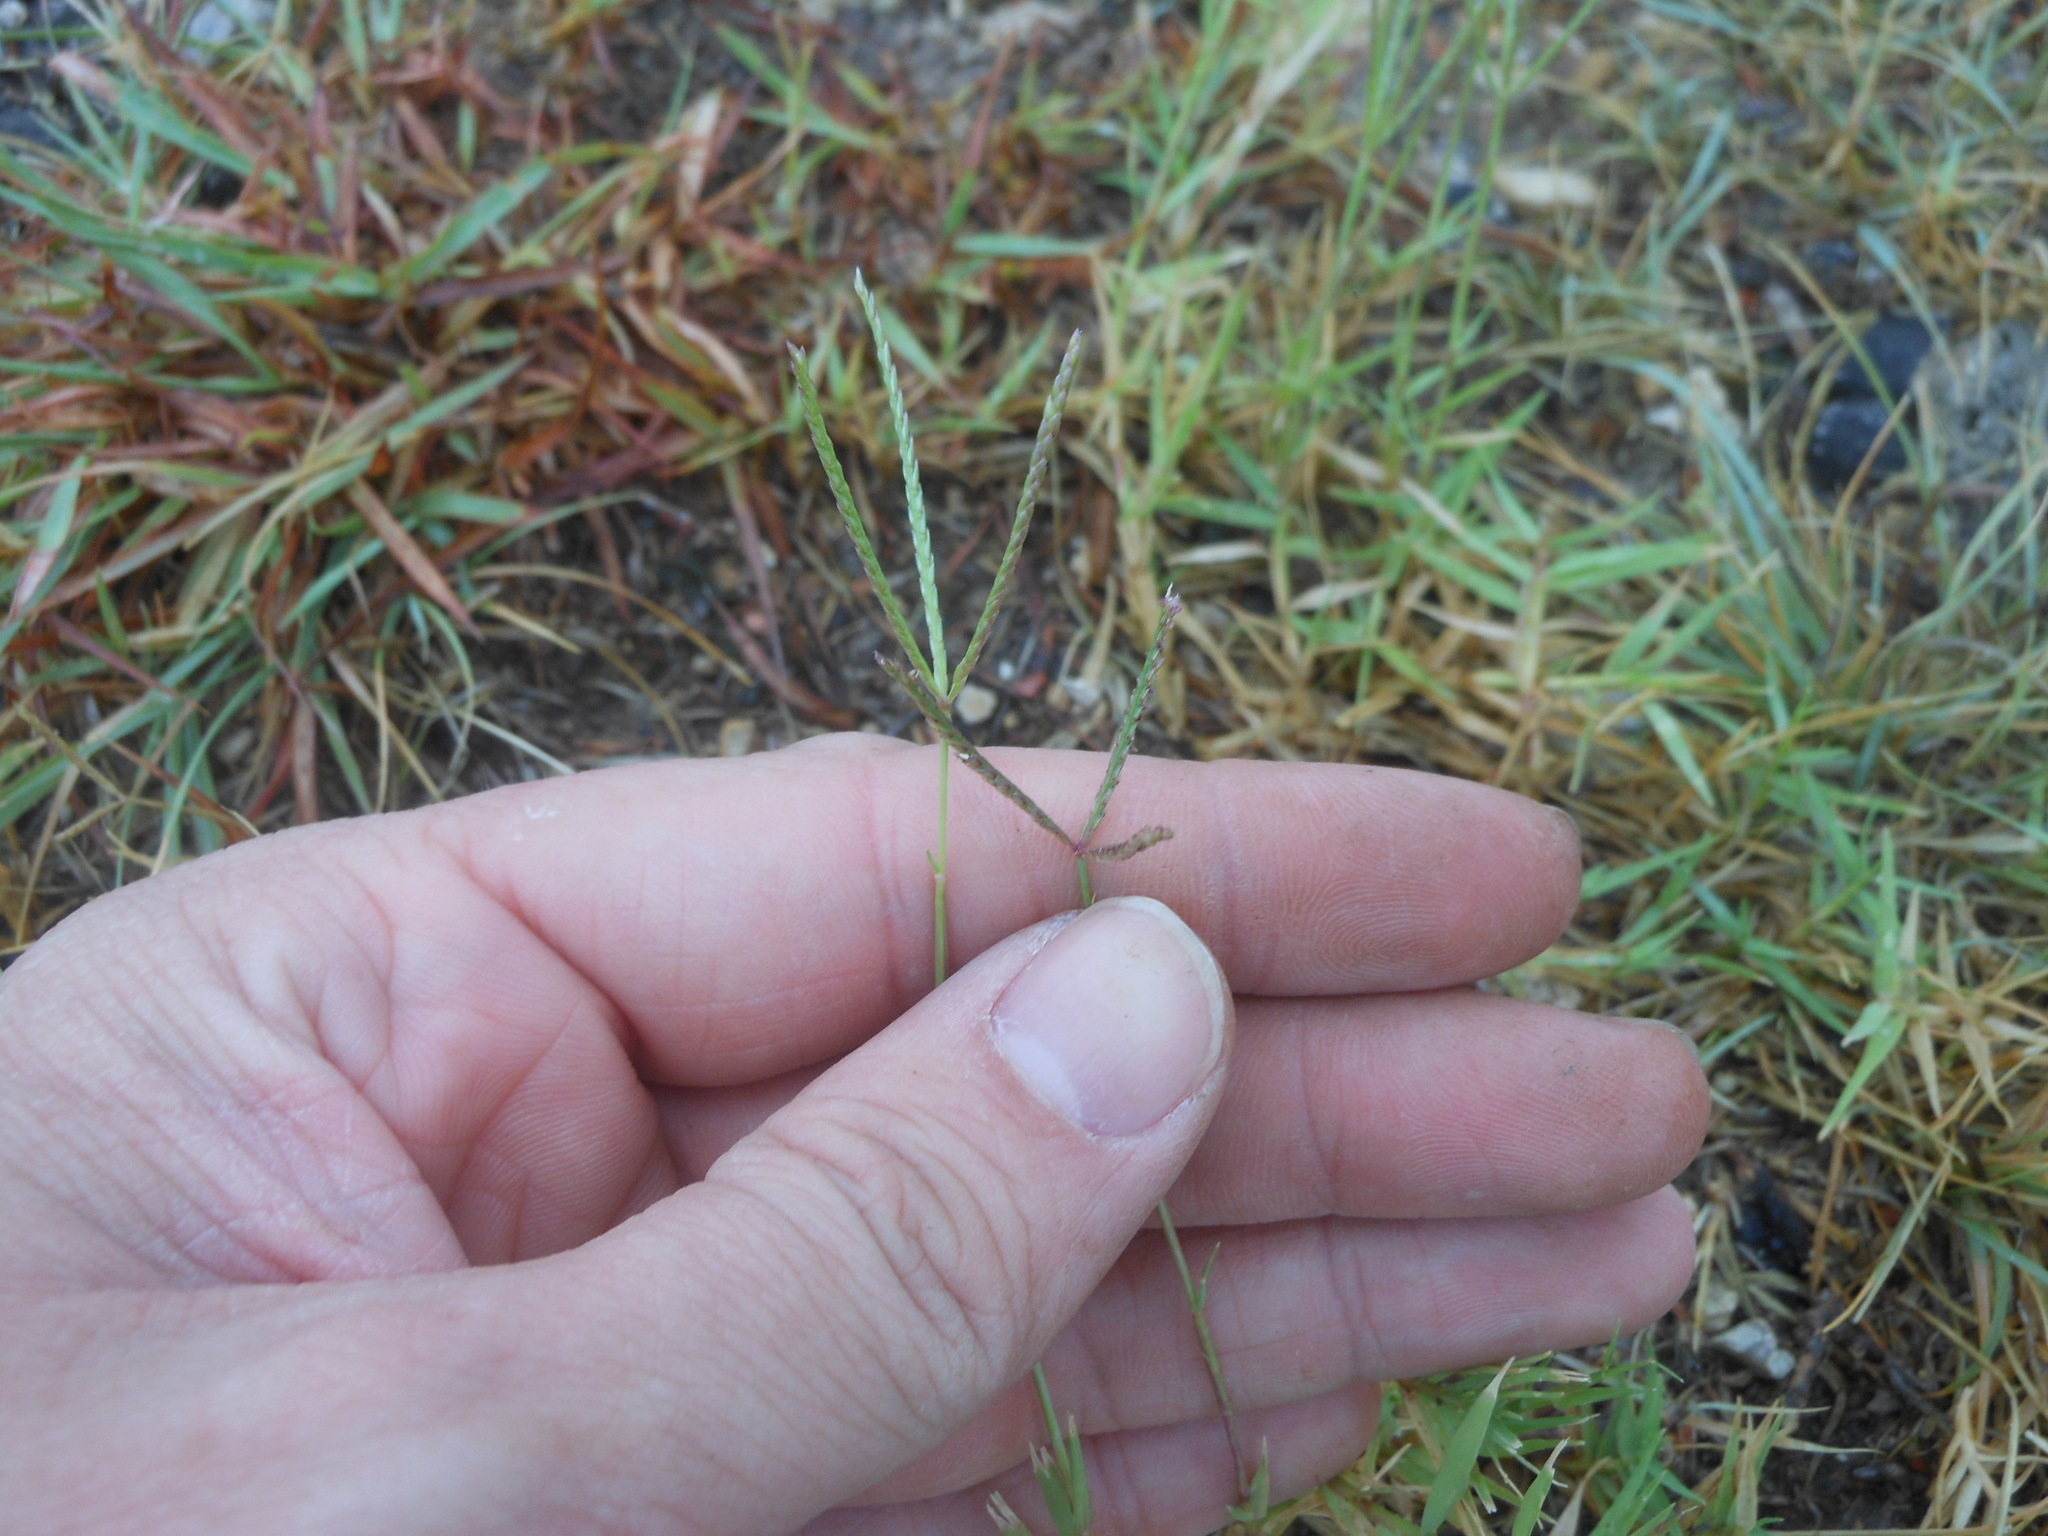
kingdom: Plantae
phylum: Tracheophyta
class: Liliopsida
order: Poales
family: Poaceae
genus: Cynodon
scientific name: Cynodon dactylon
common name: Bermuda grass
